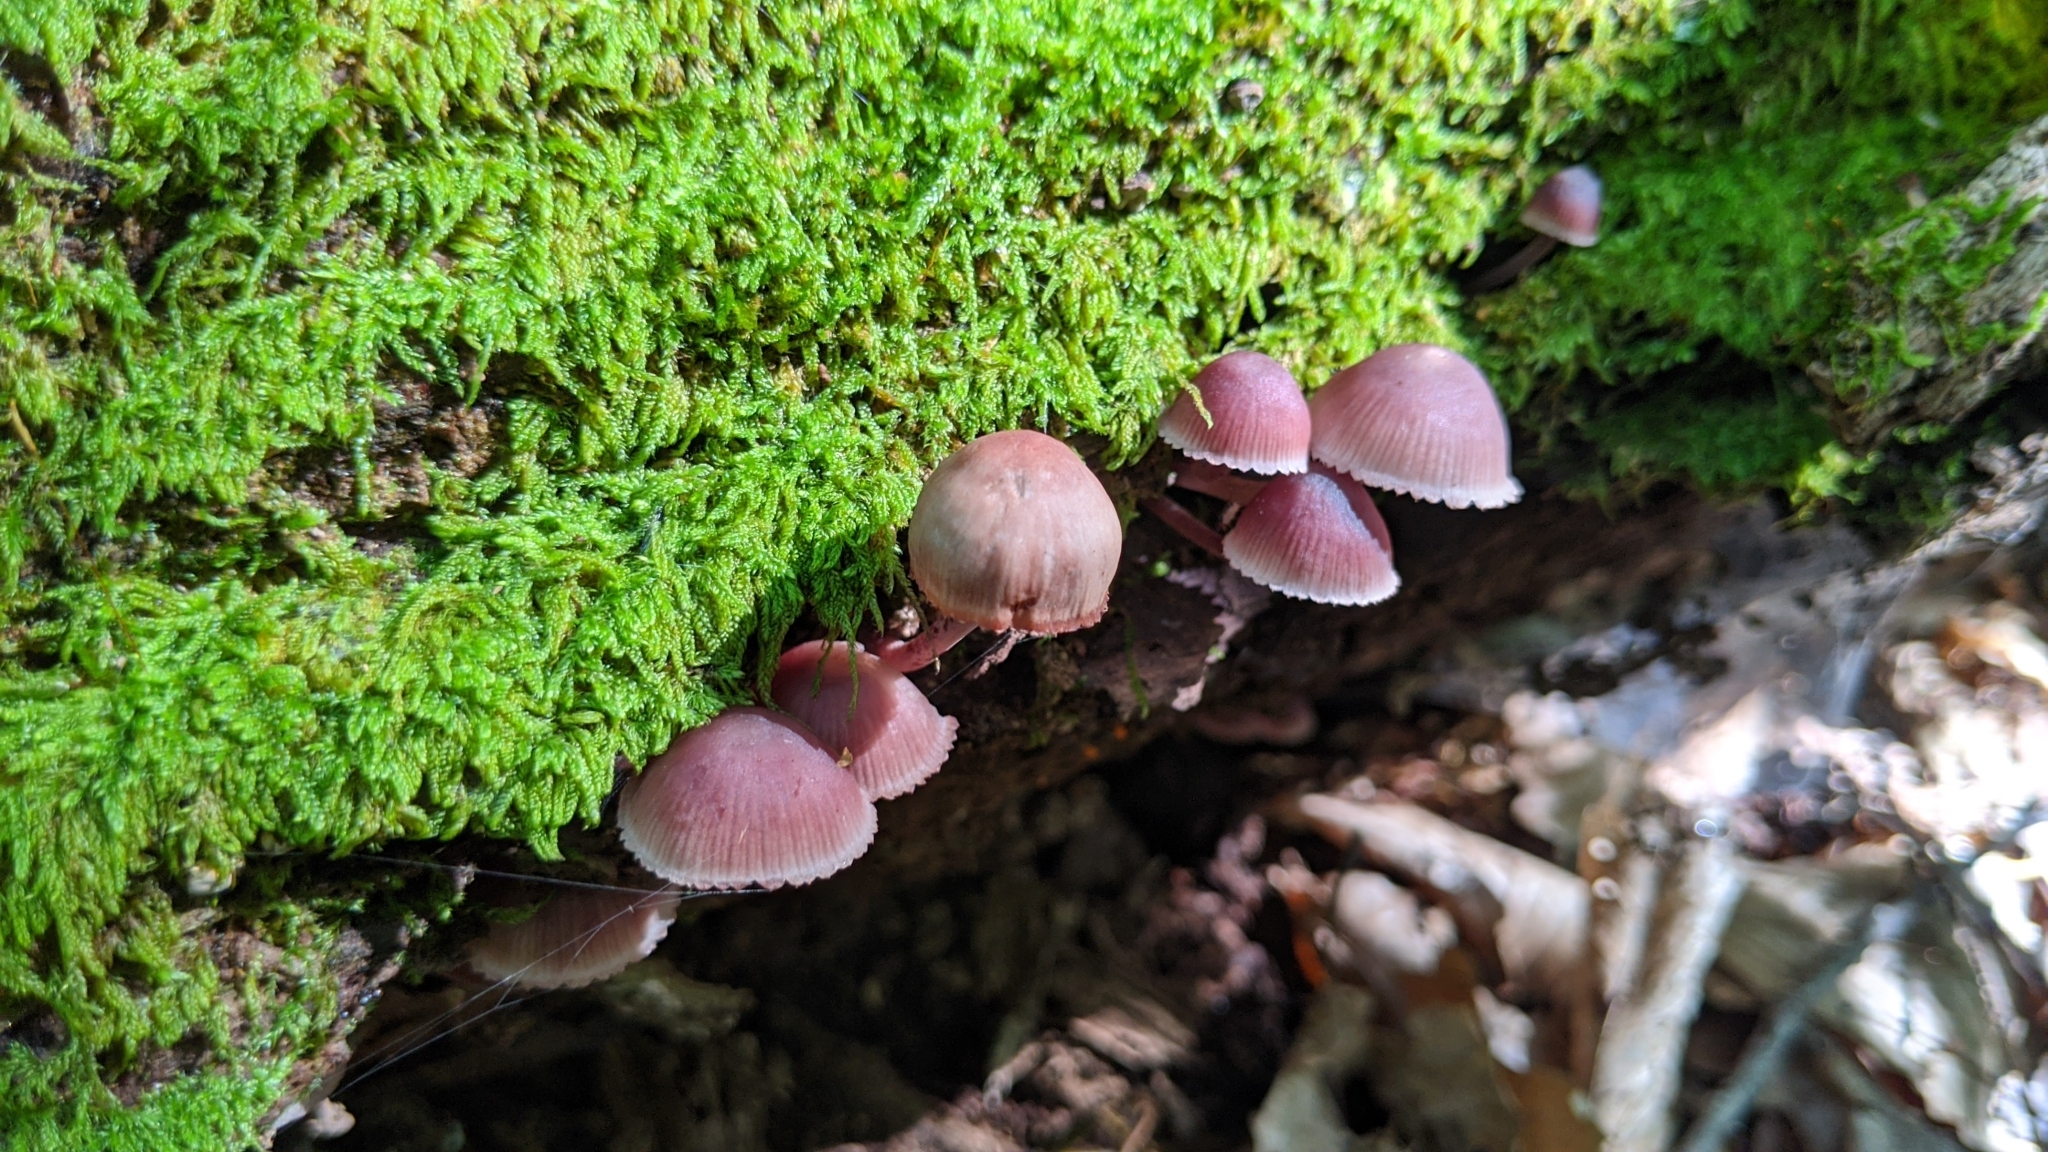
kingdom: Fungi
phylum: Basidiomycota
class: Agaricomycetes
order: Agaricales
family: Mycenaceae
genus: Mycena
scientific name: Mycena haematopus
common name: Burgundydrop bonnet
